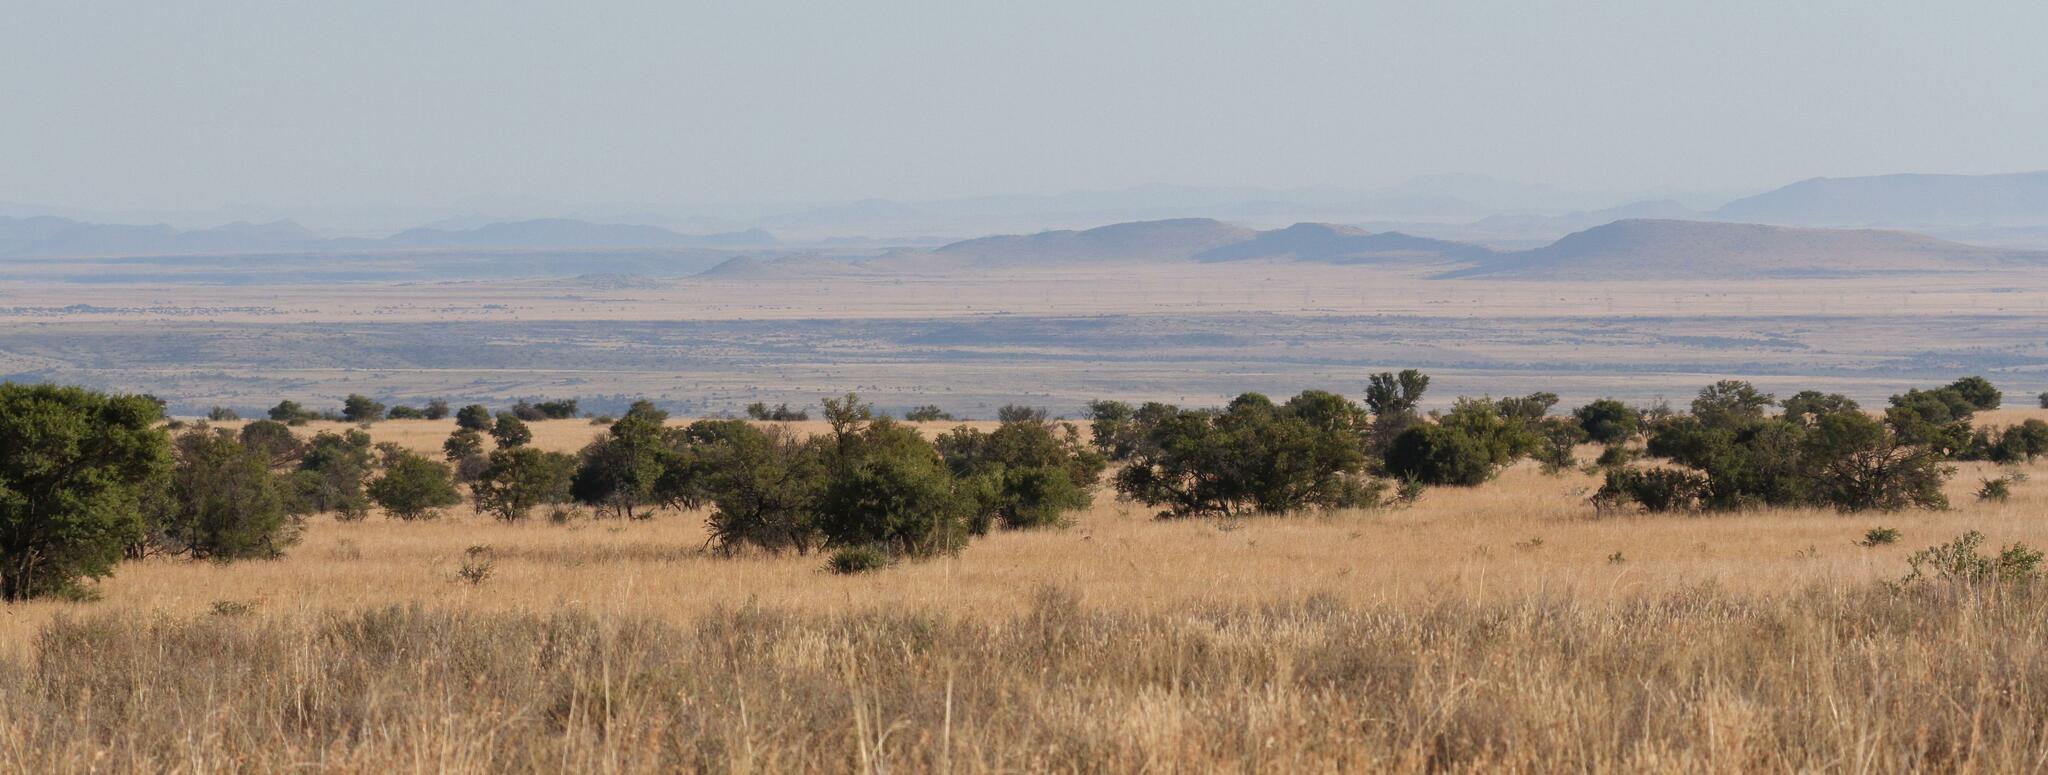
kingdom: Plantae
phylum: Tracheophyta
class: Magnoliopsida
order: Fabales
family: Fabaceae
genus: Vachellia
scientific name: Vachellia karroo
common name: Sweet thorn
